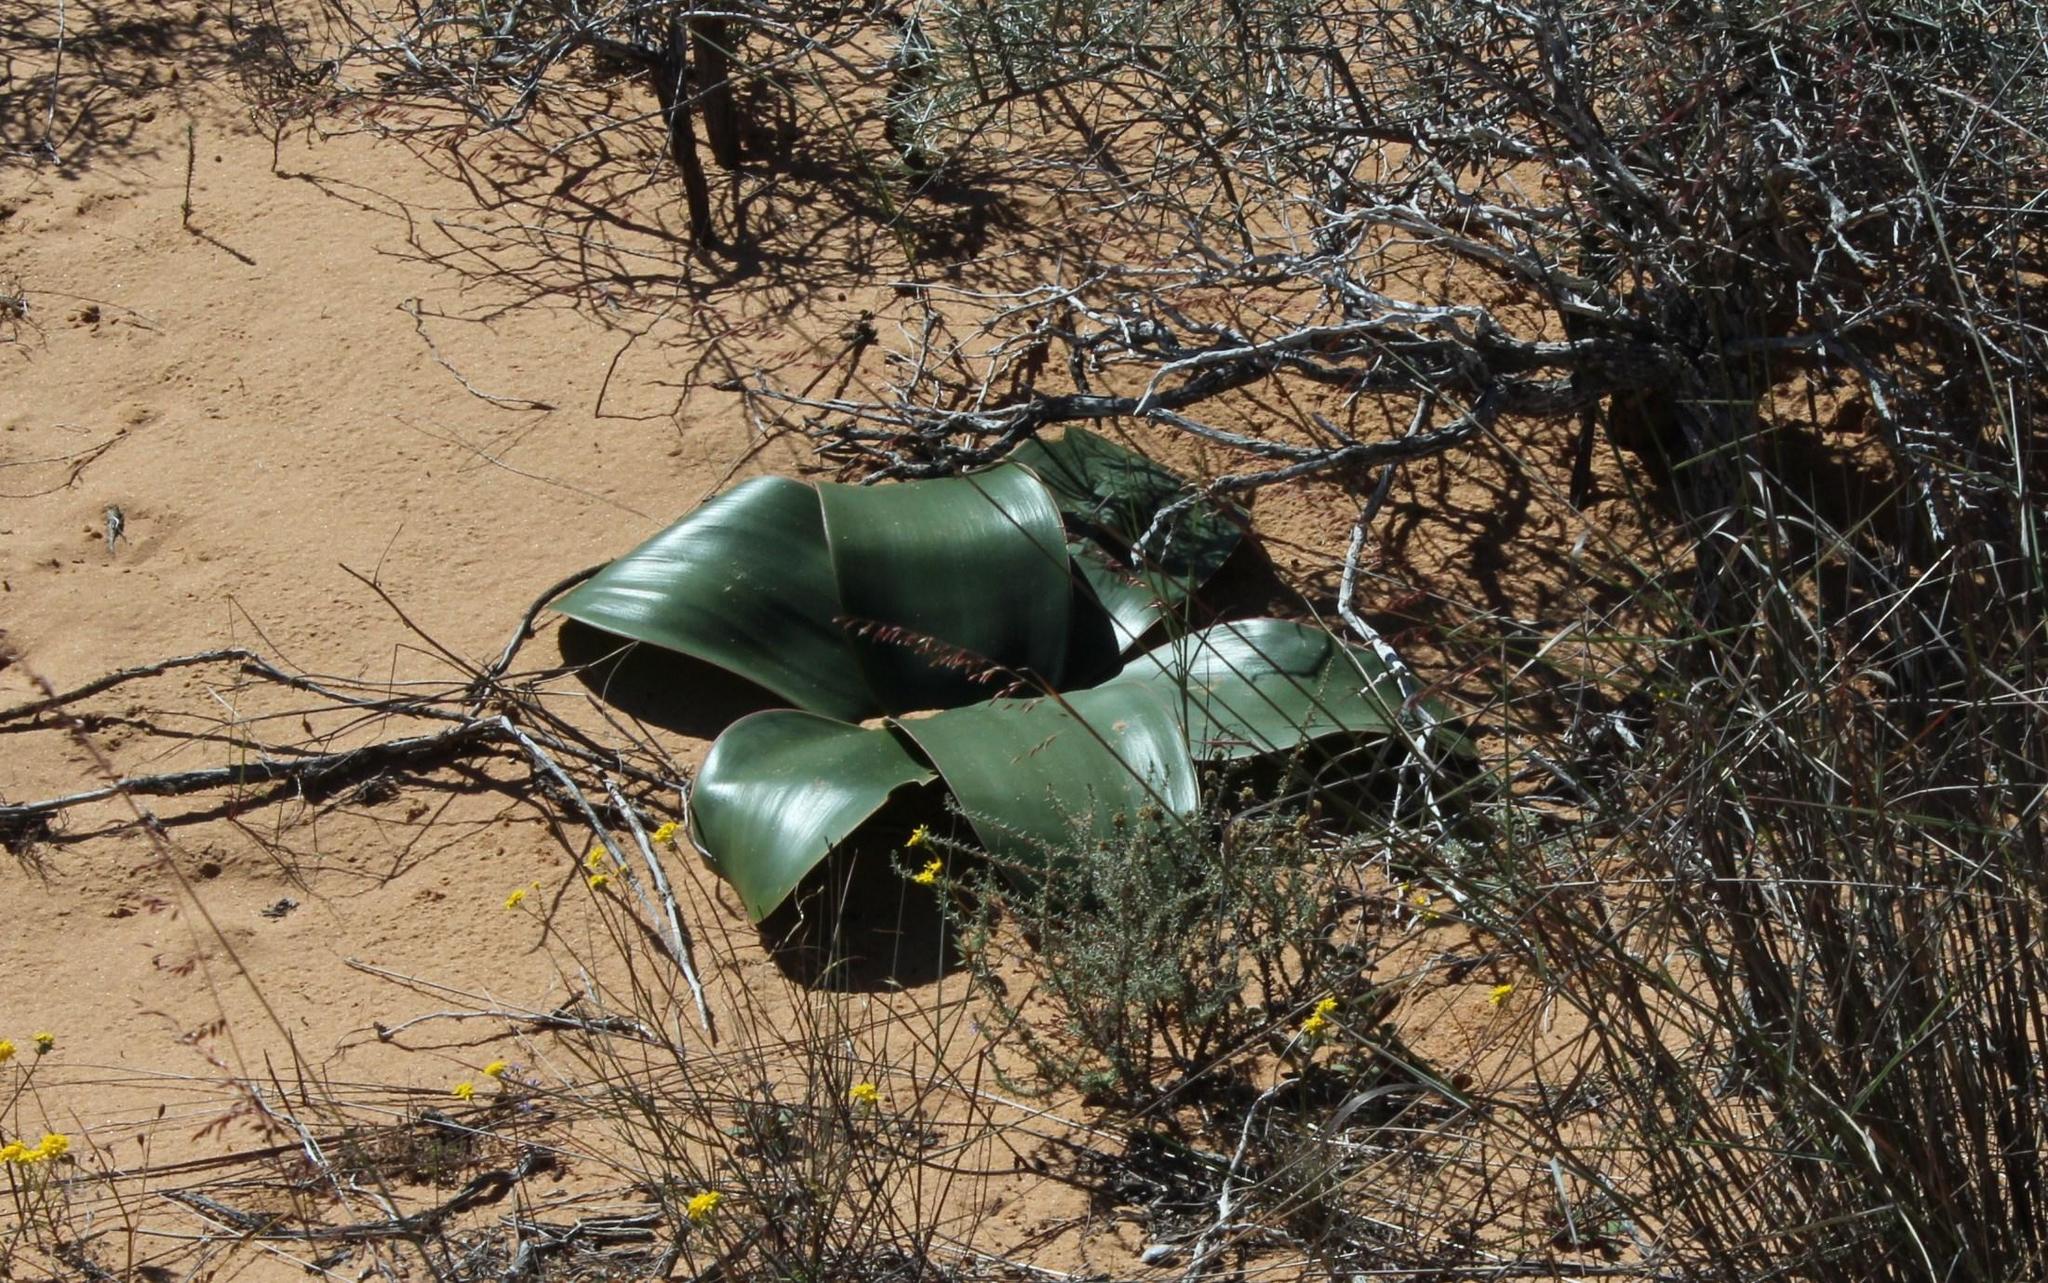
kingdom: Plantae
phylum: Tracheophyta
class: Liliopsida
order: Asparagales
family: Amaryllidaceae
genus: Brunsvigia
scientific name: Brunsvigia bosmaniae
